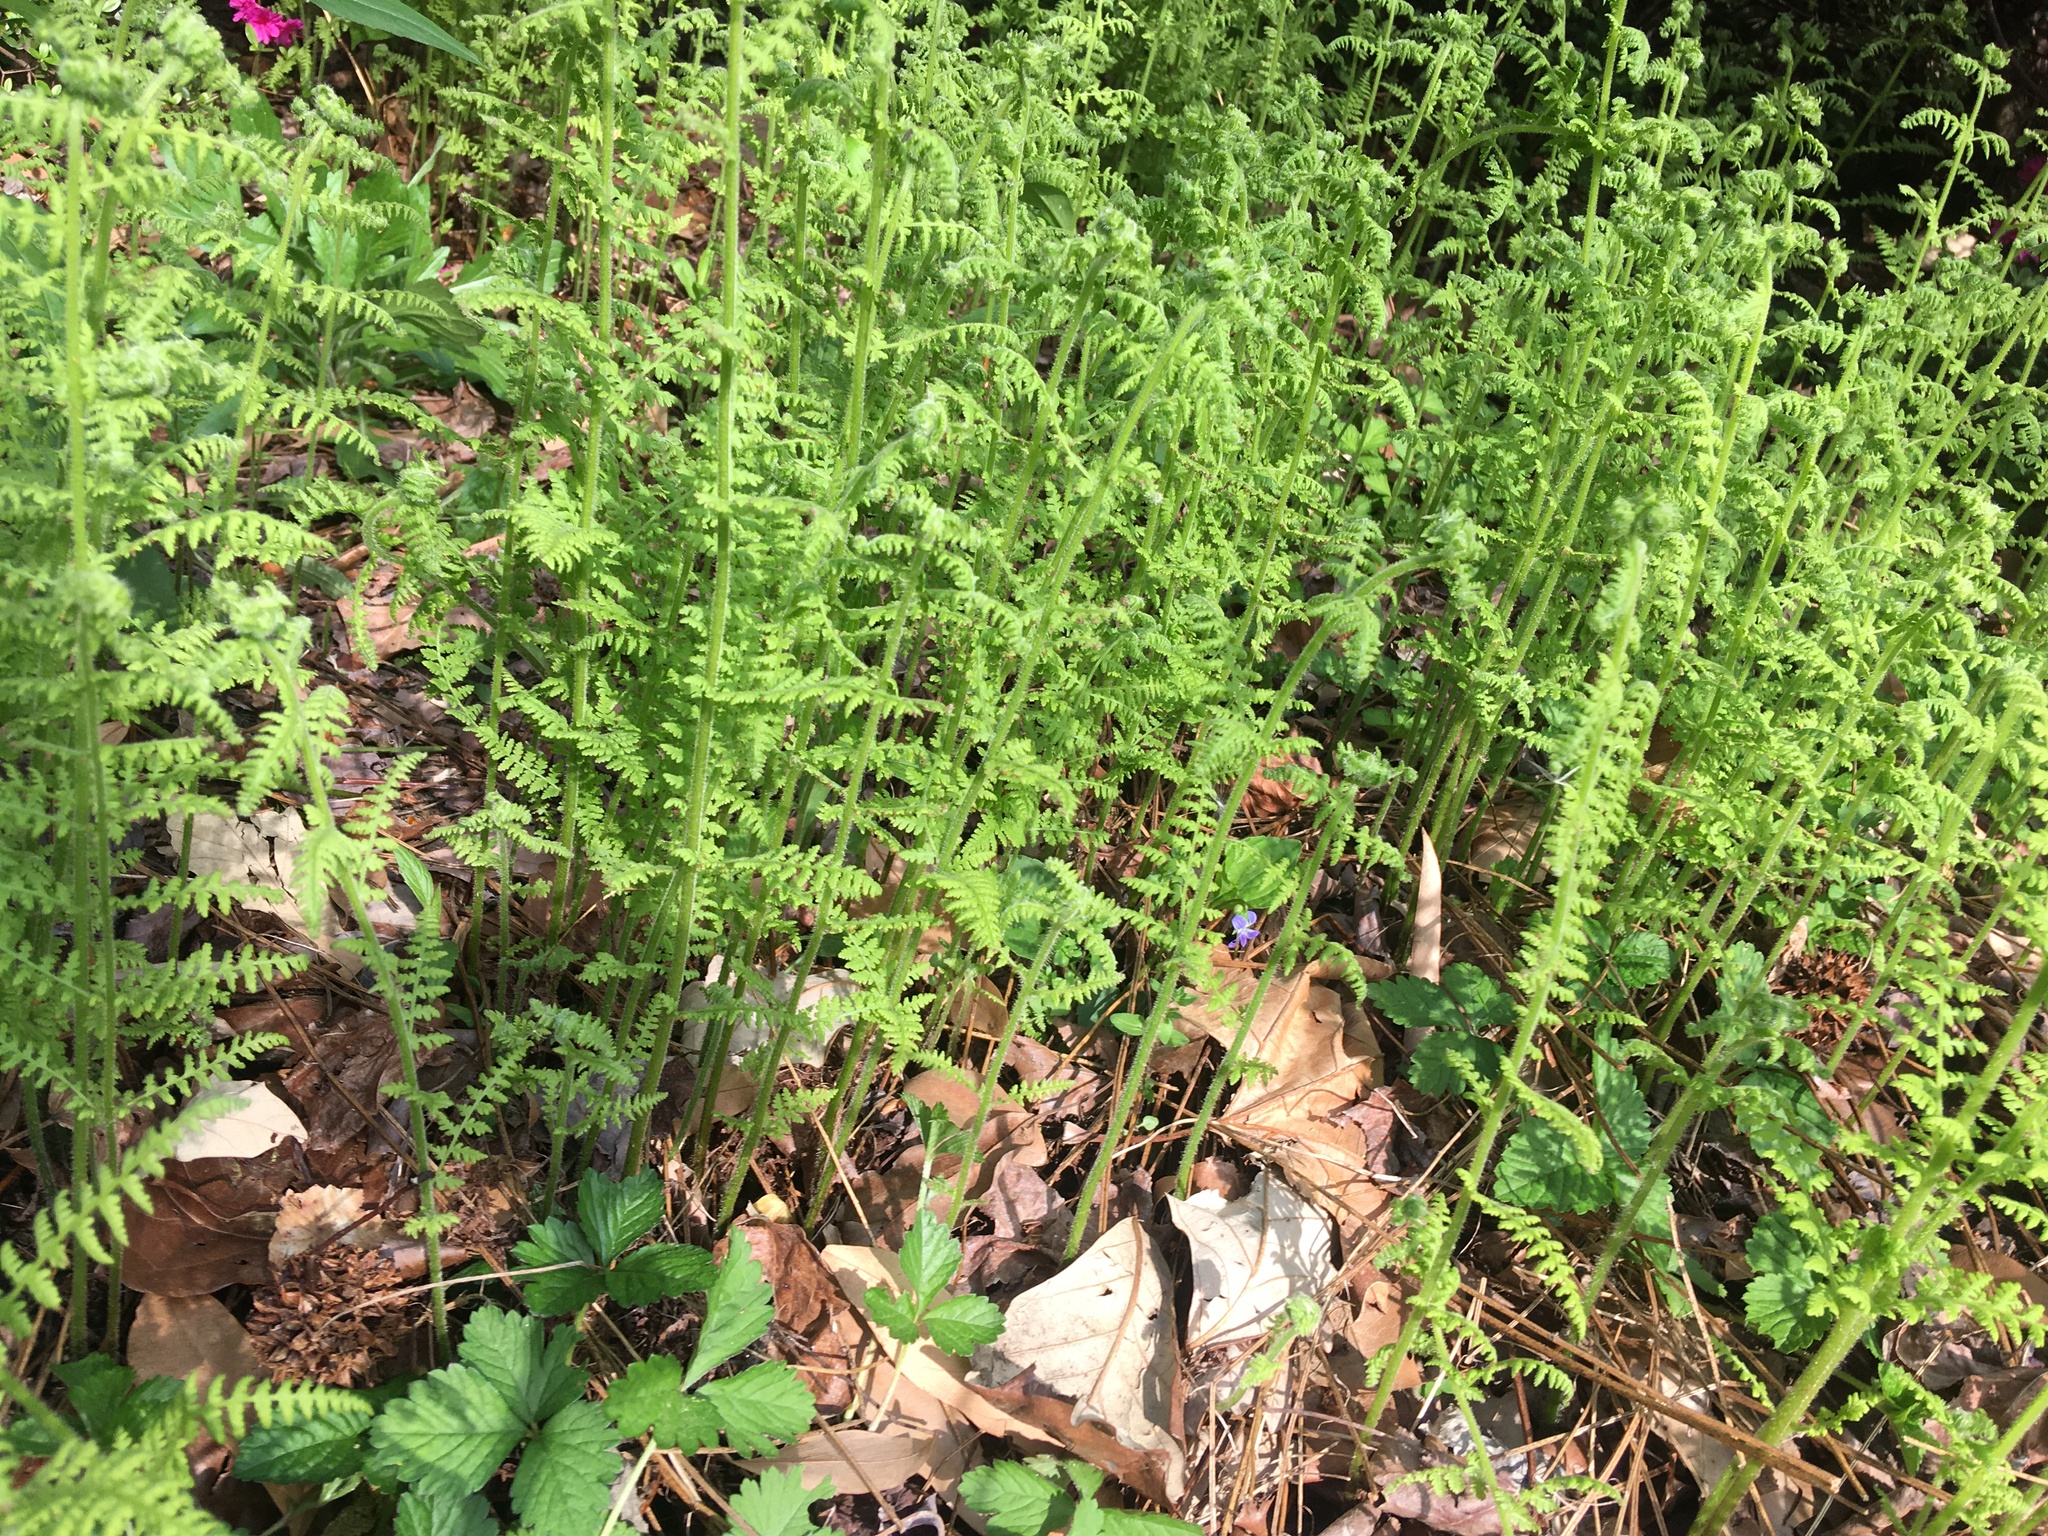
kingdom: Plantae
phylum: Tracheophyta
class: Polypodiopsida
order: Polypodiales
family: Dennstaedtiaceae
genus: Sitobolium
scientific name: Sitobolium punctilobum
